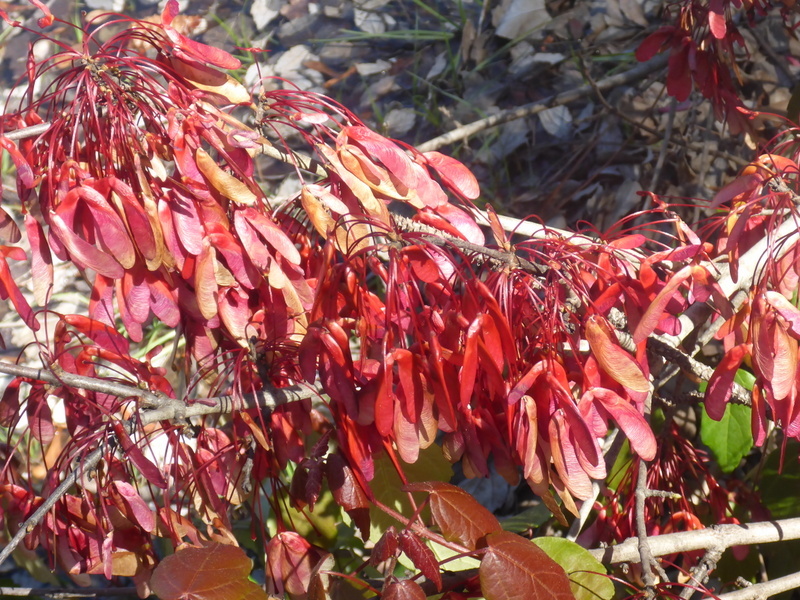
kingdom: Plantae
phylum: Tracheophyta
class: Magnoliopsida
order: Sapindales
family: Sapindaceae
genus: Acer
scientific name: Acer rubrum
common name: Red maple
